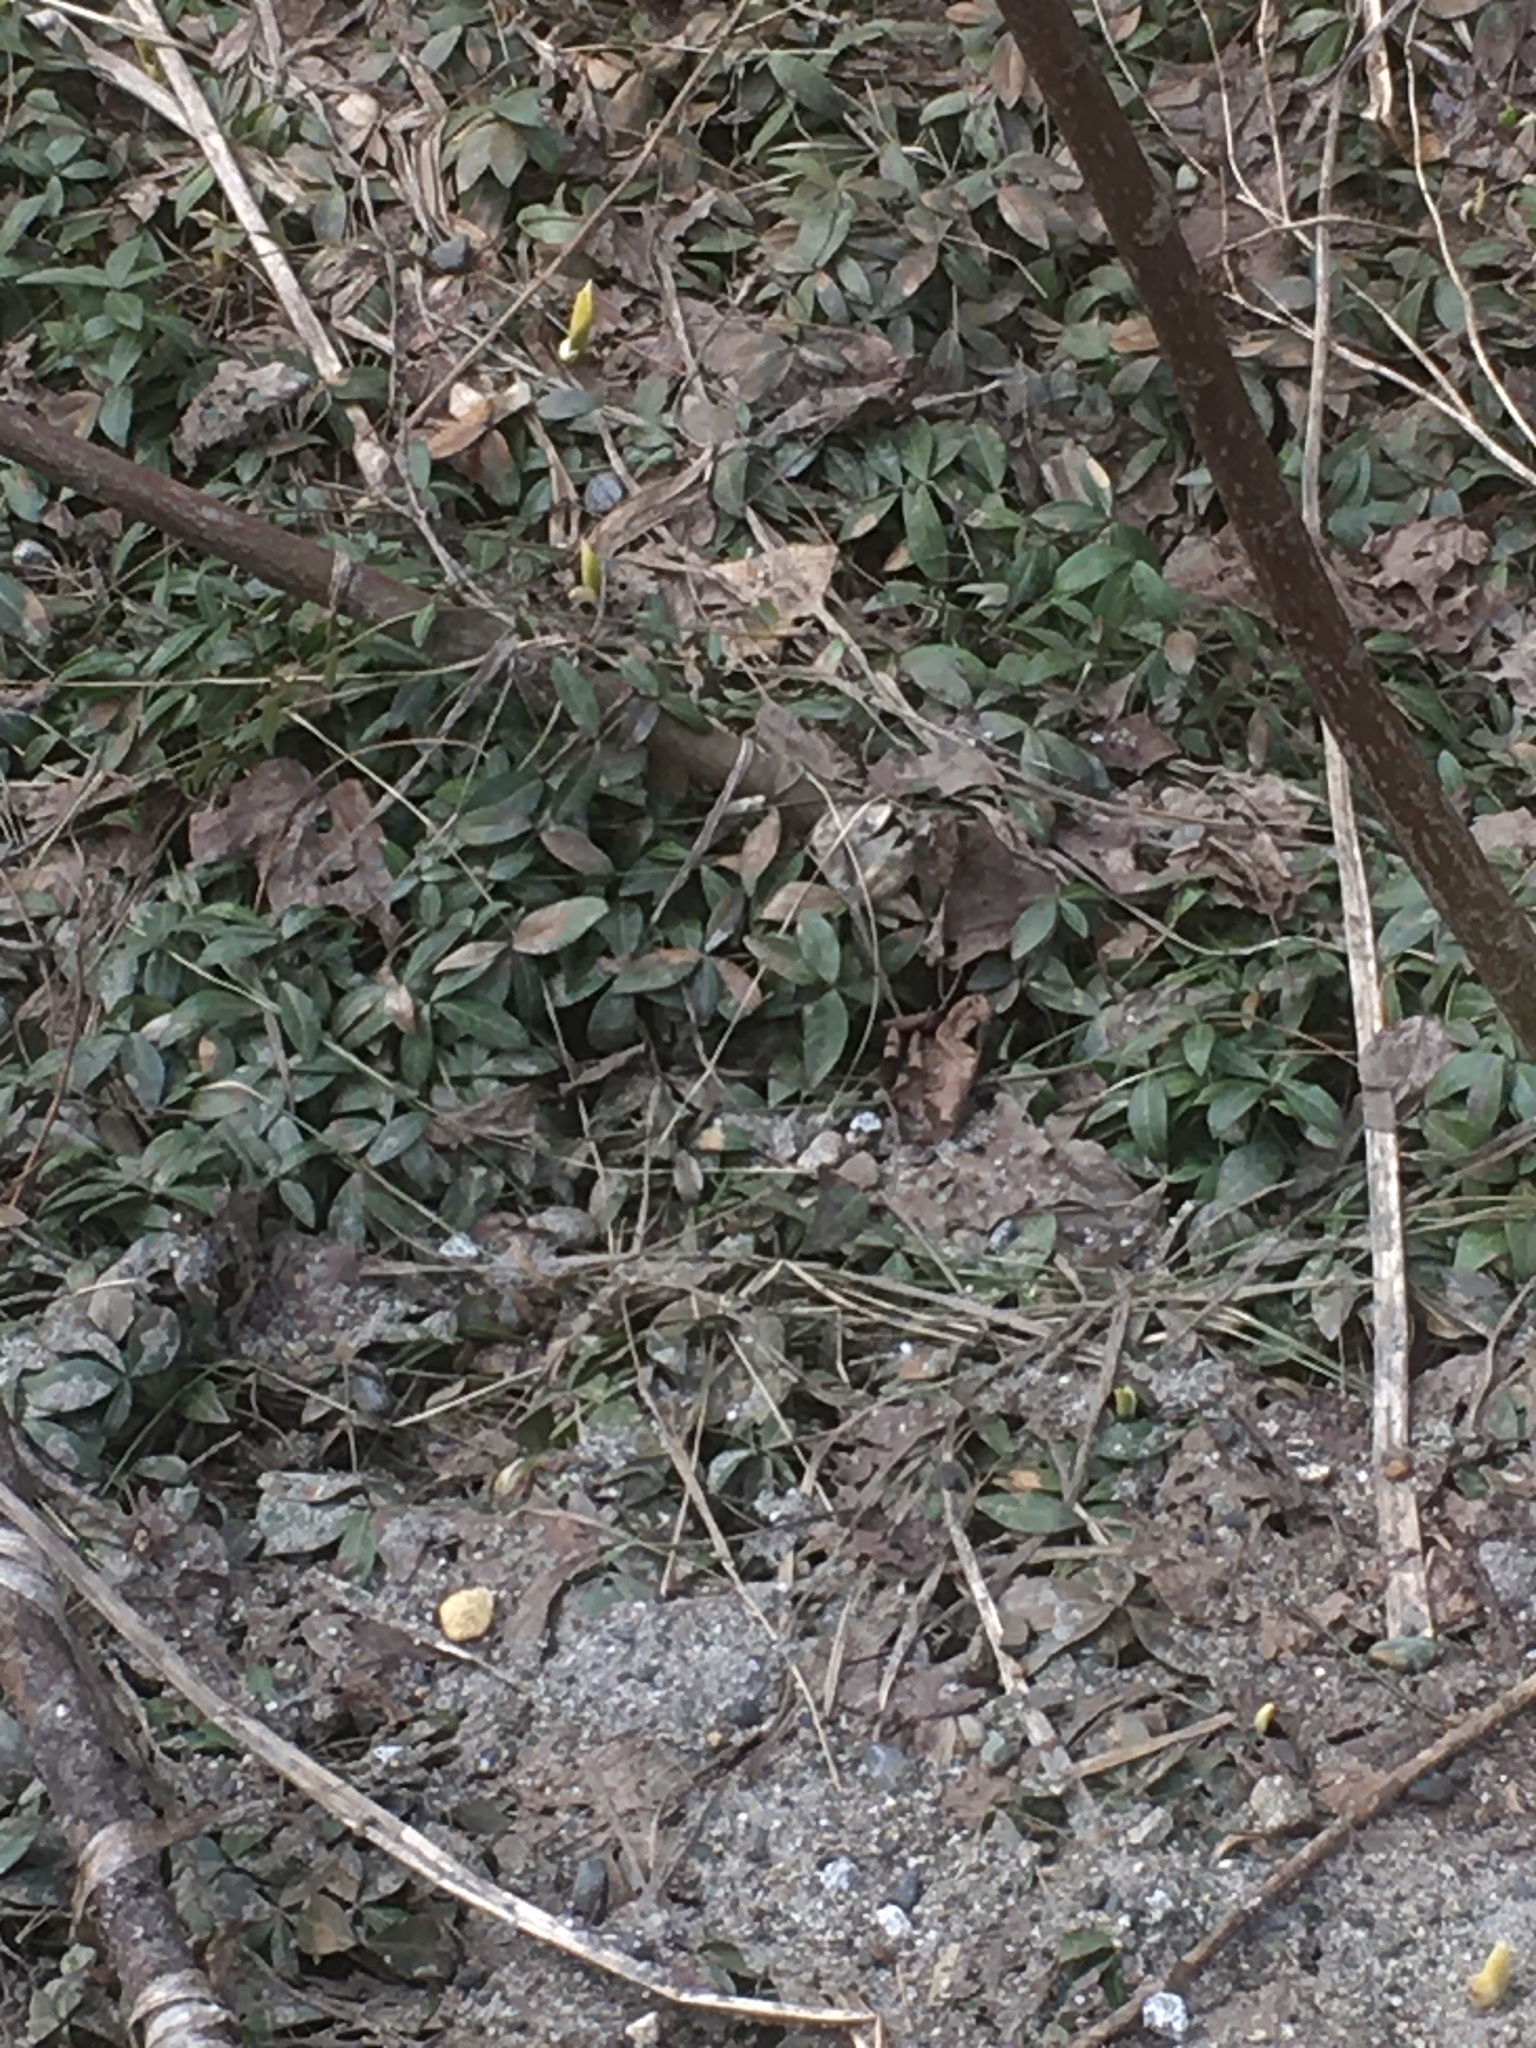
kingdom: Plantae
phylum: Tracheophyta
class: Magnoliopsida
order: Gentianales
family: Apocynaceae
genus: Vinca
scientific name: Vinca minor
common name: Lesser periwinkle
